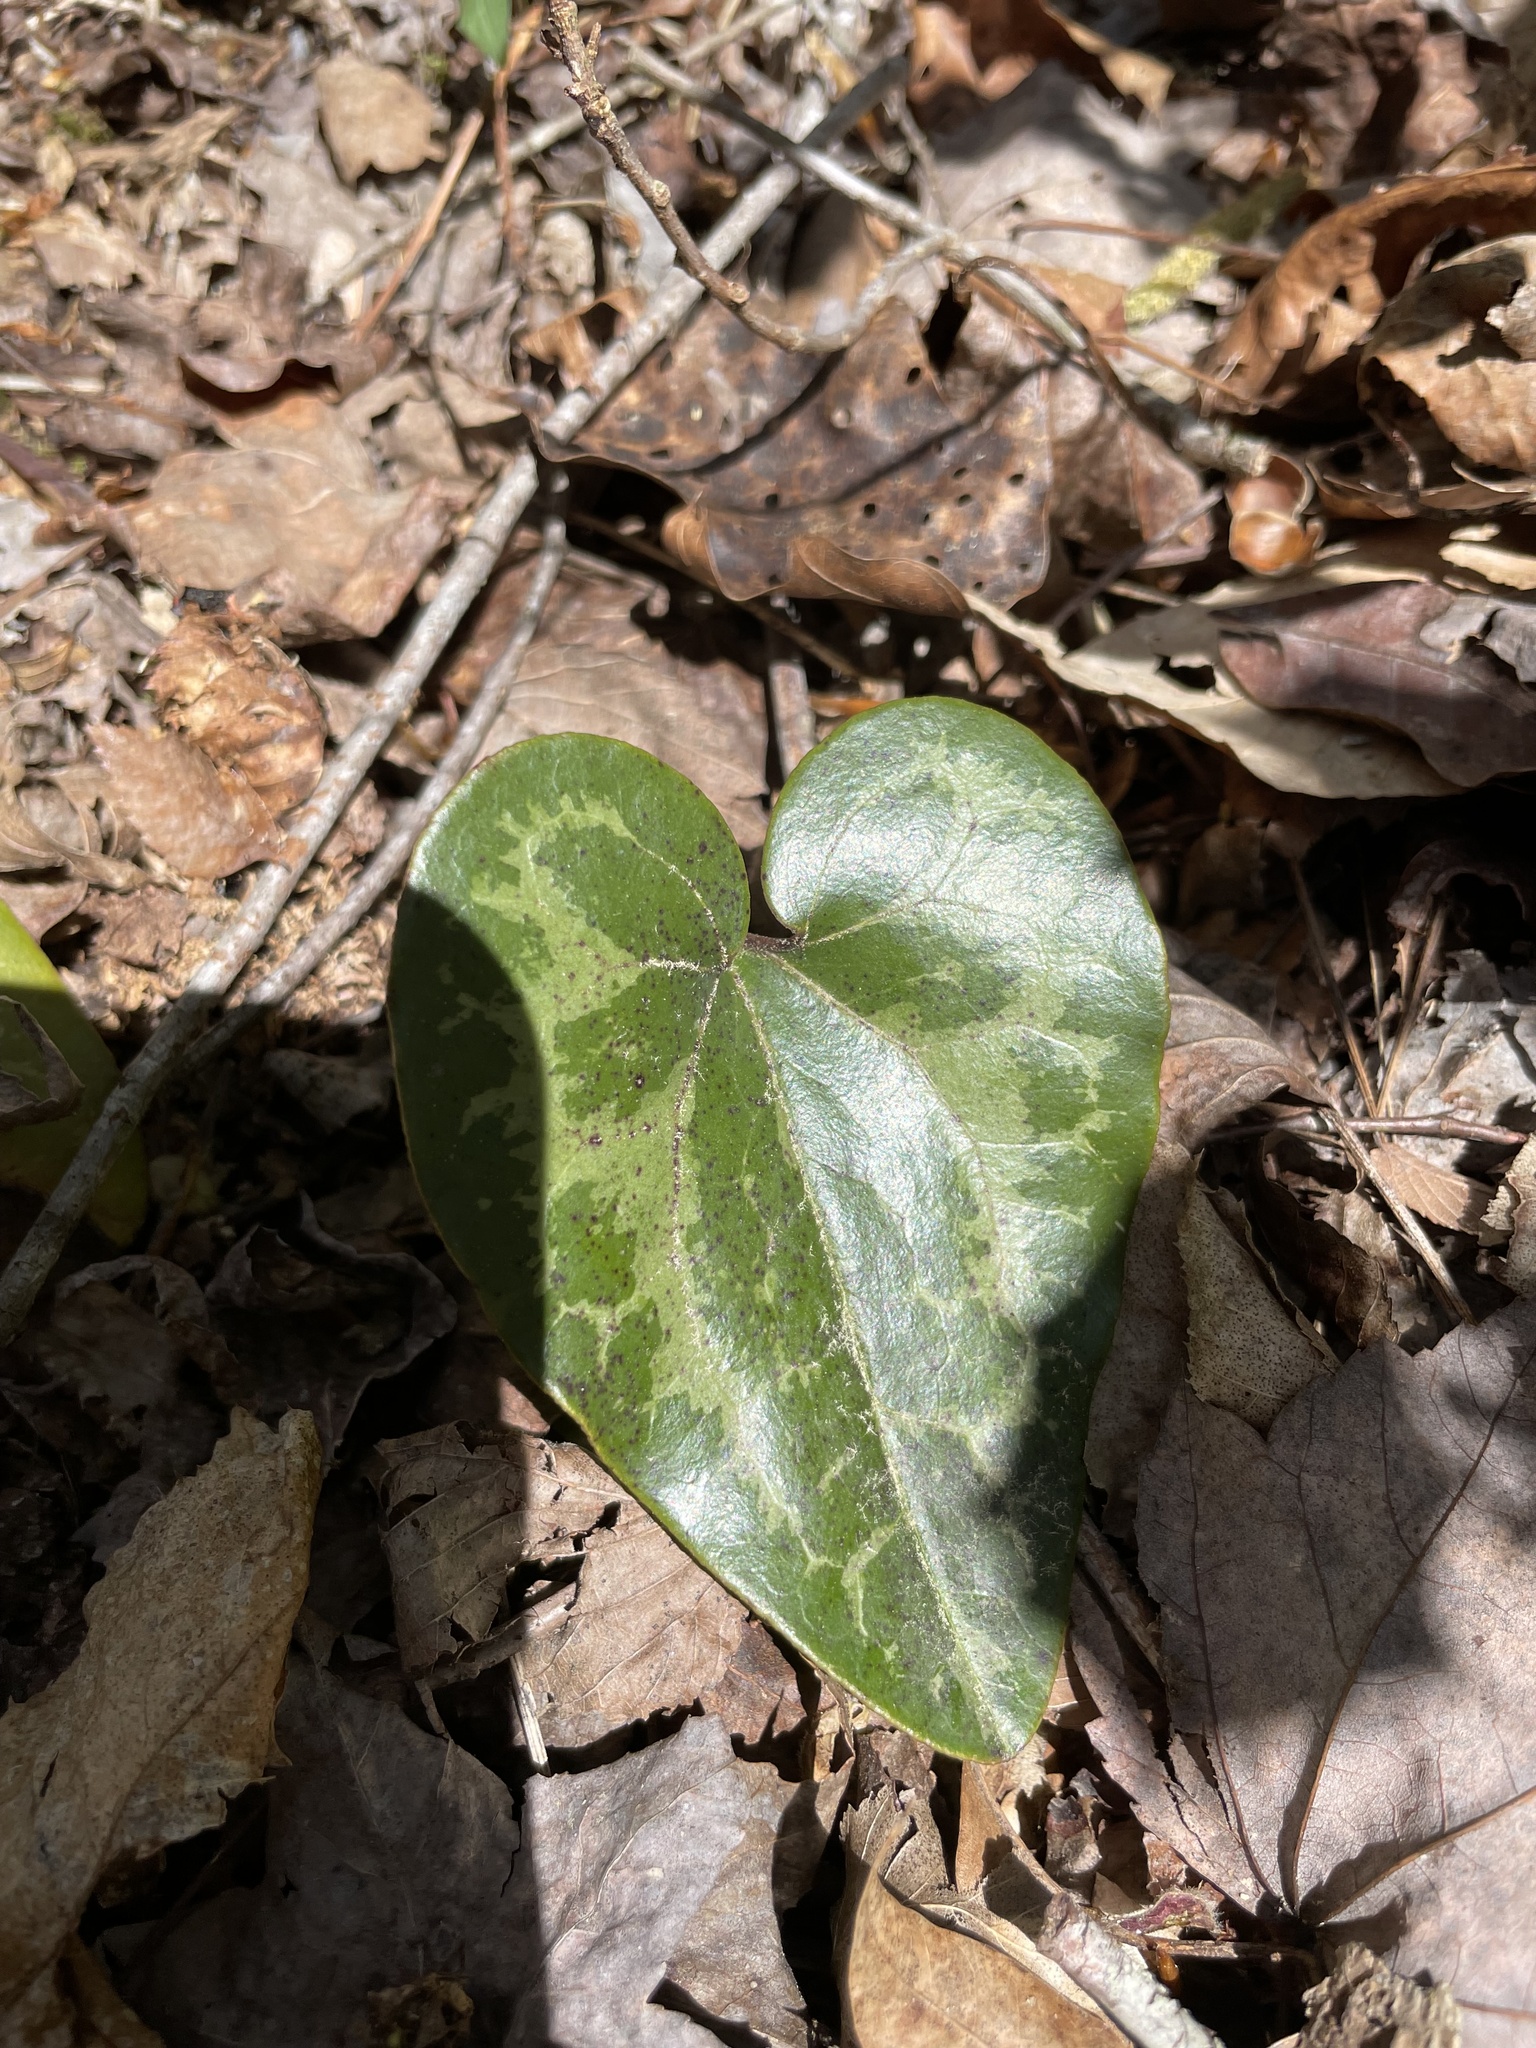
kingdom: Plantae
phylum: Tracheophyta
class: Magnoliopsida
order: Piperales
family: Aristolochiaceae
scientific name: Aristolochiaceae
